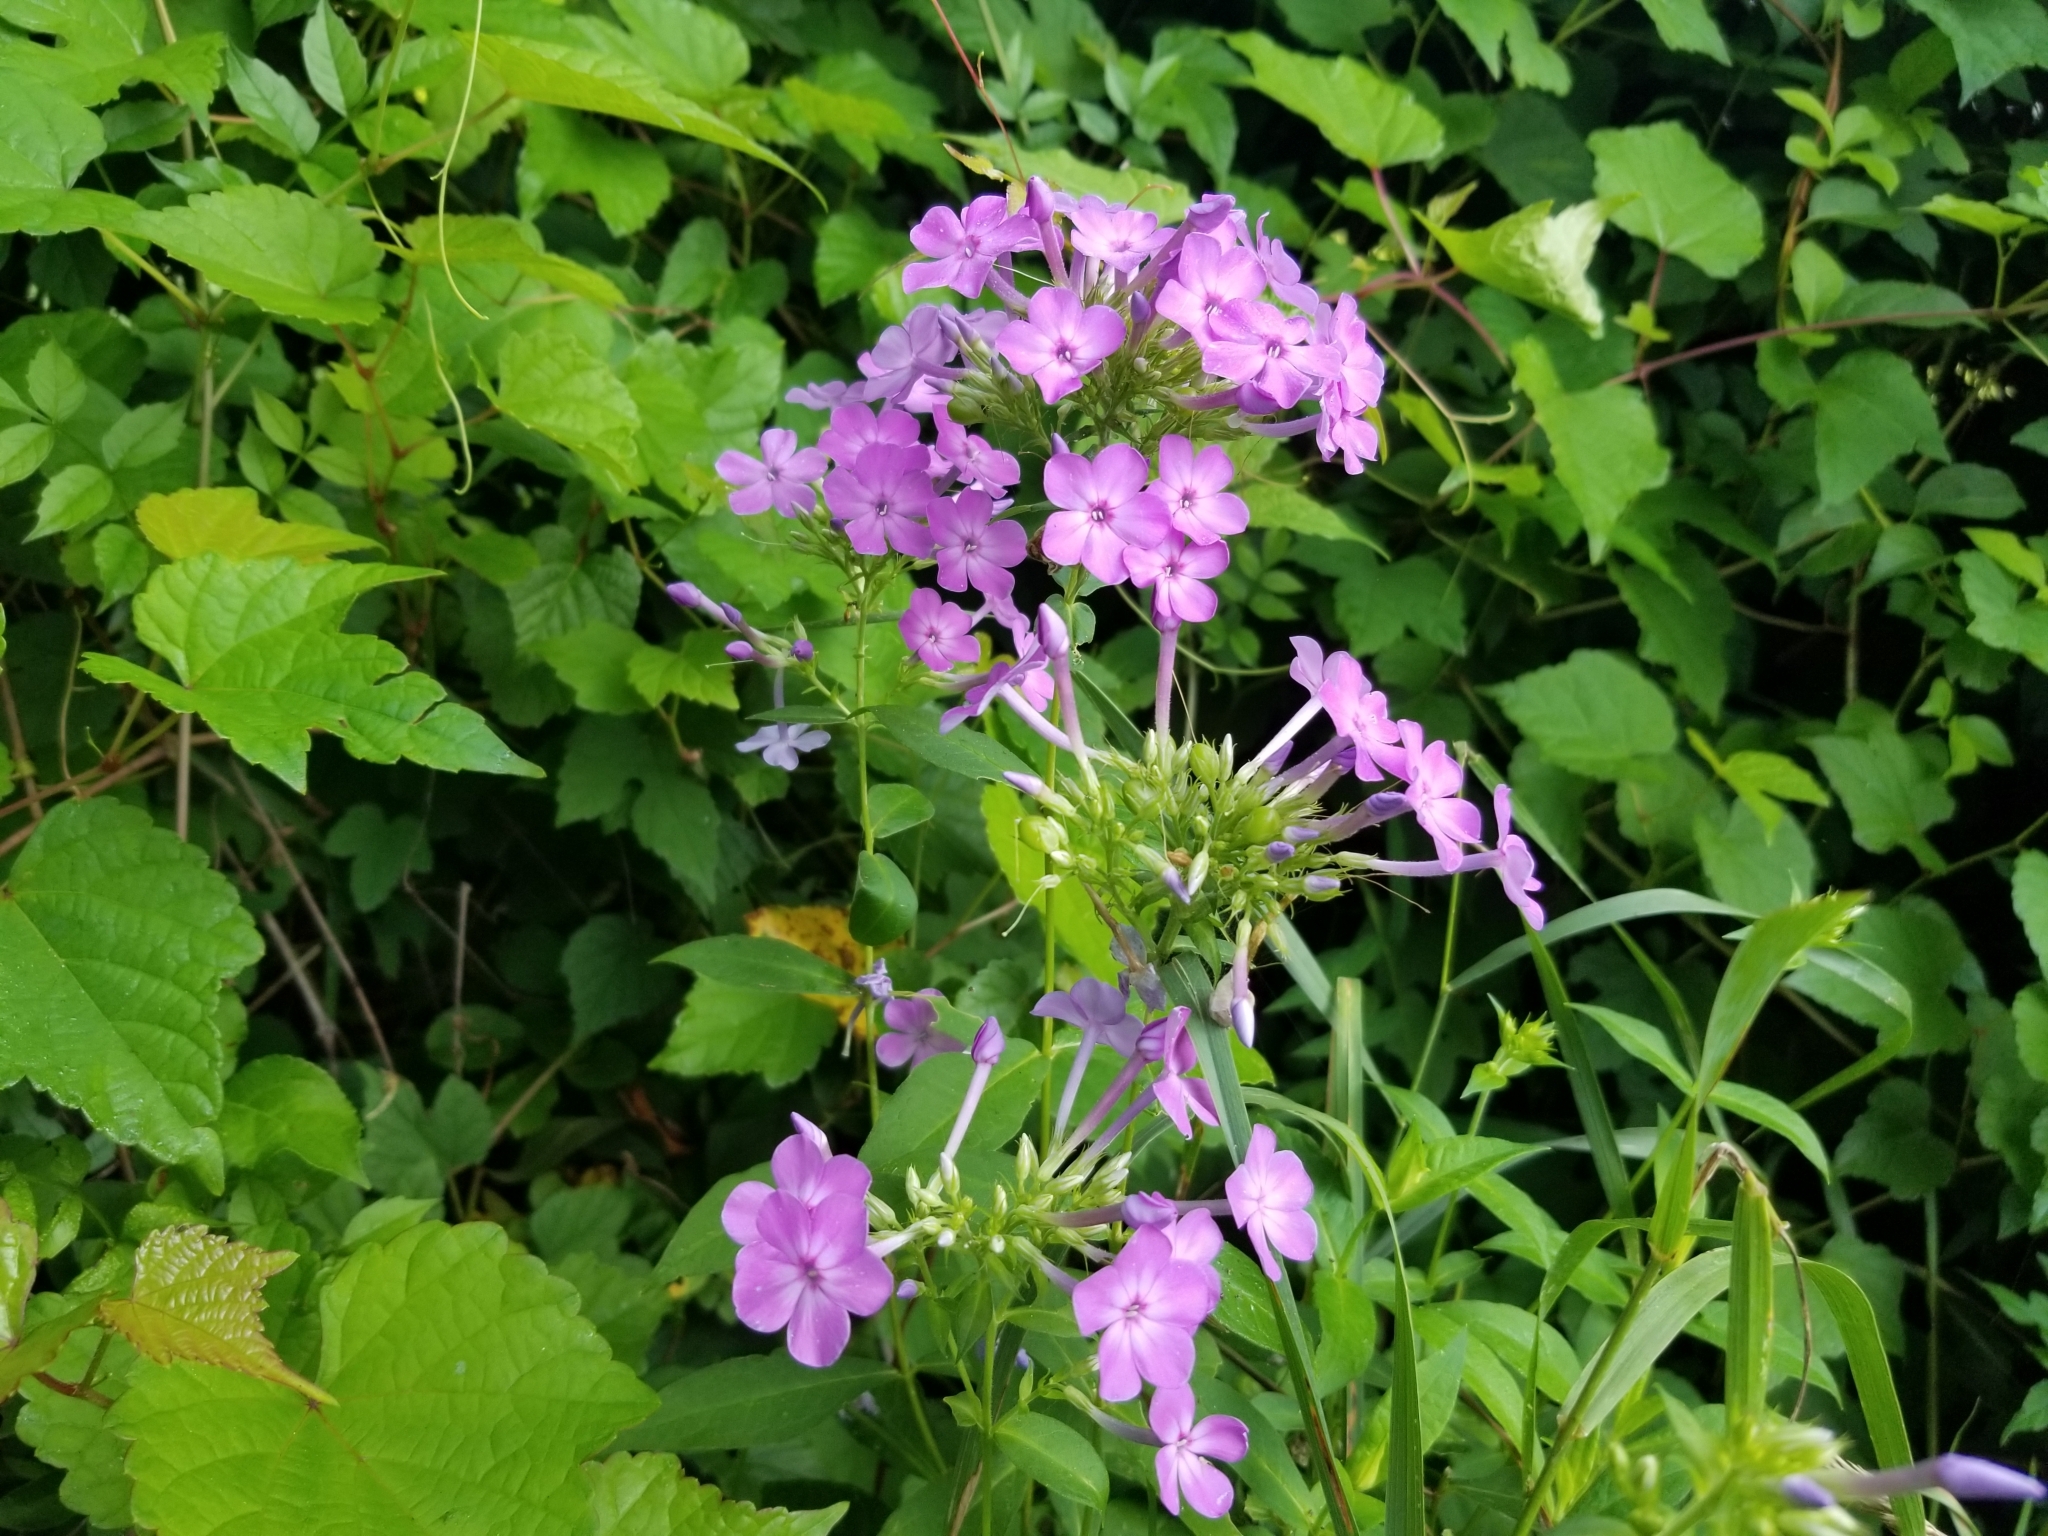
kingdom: Plantae
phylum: Tracheophyta
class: Magnoliopsida
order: Ericales
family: Polemoniaceae
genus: Phlox
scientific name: Phlox paniculata
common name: Fall phlox
